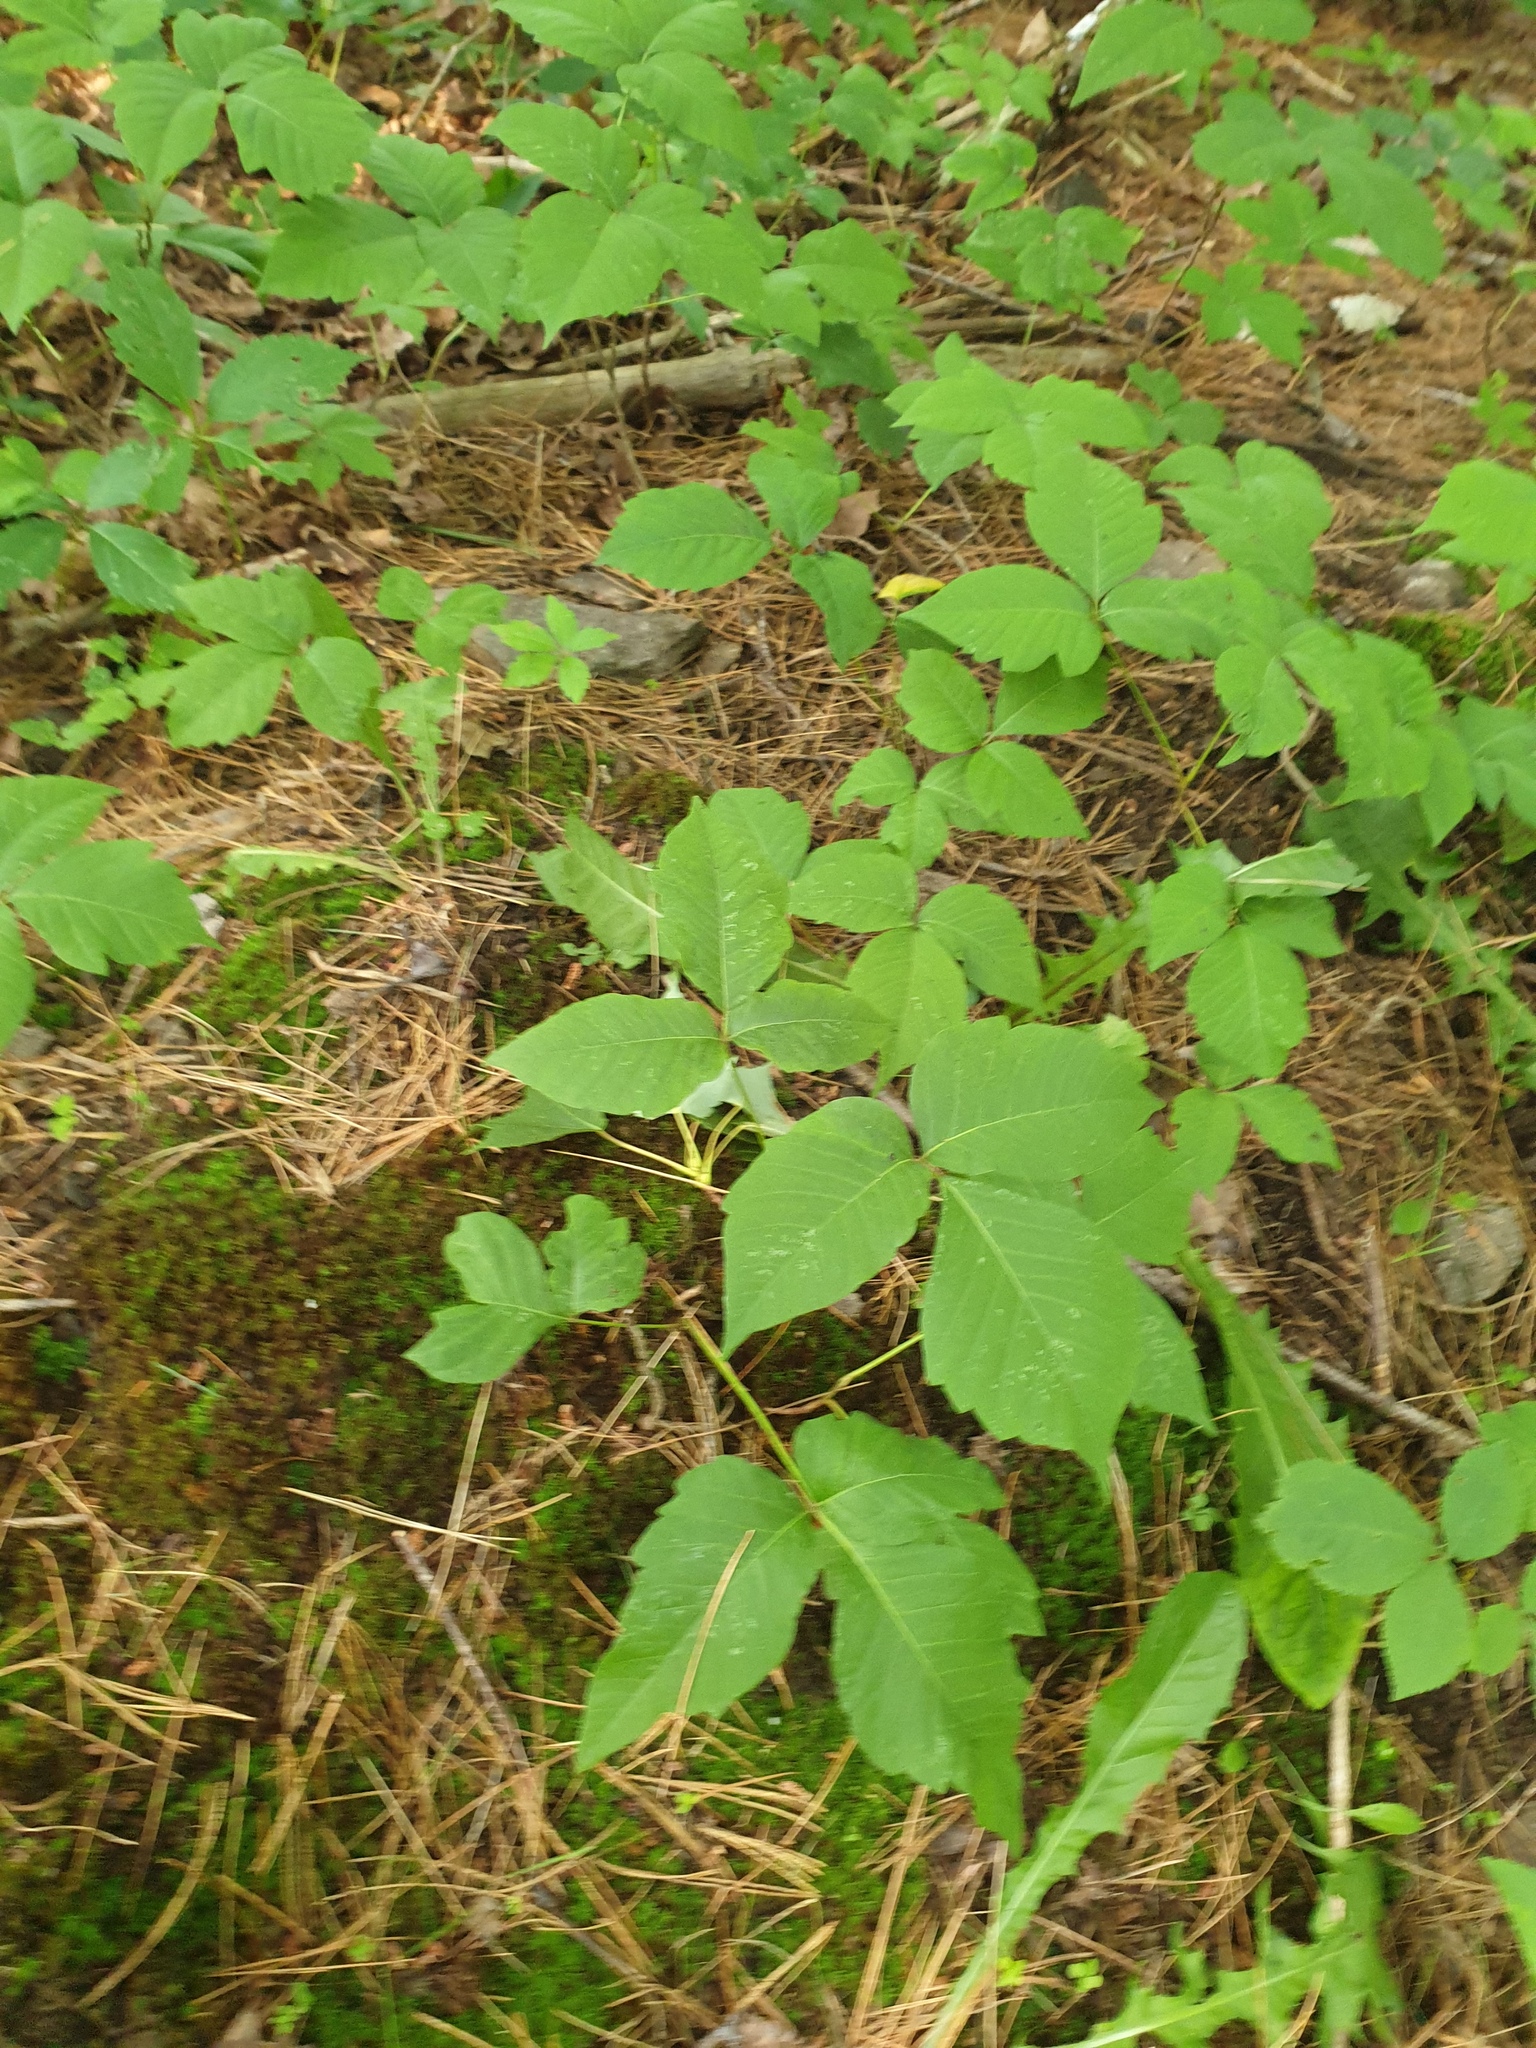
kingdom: Plantae
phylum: Tracheophyta
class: Magnoliopsida
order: Sapindales
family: Anacardiaceae
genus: Toxicodendron
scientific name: Toxicodendron radicans
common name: Poison ivy
